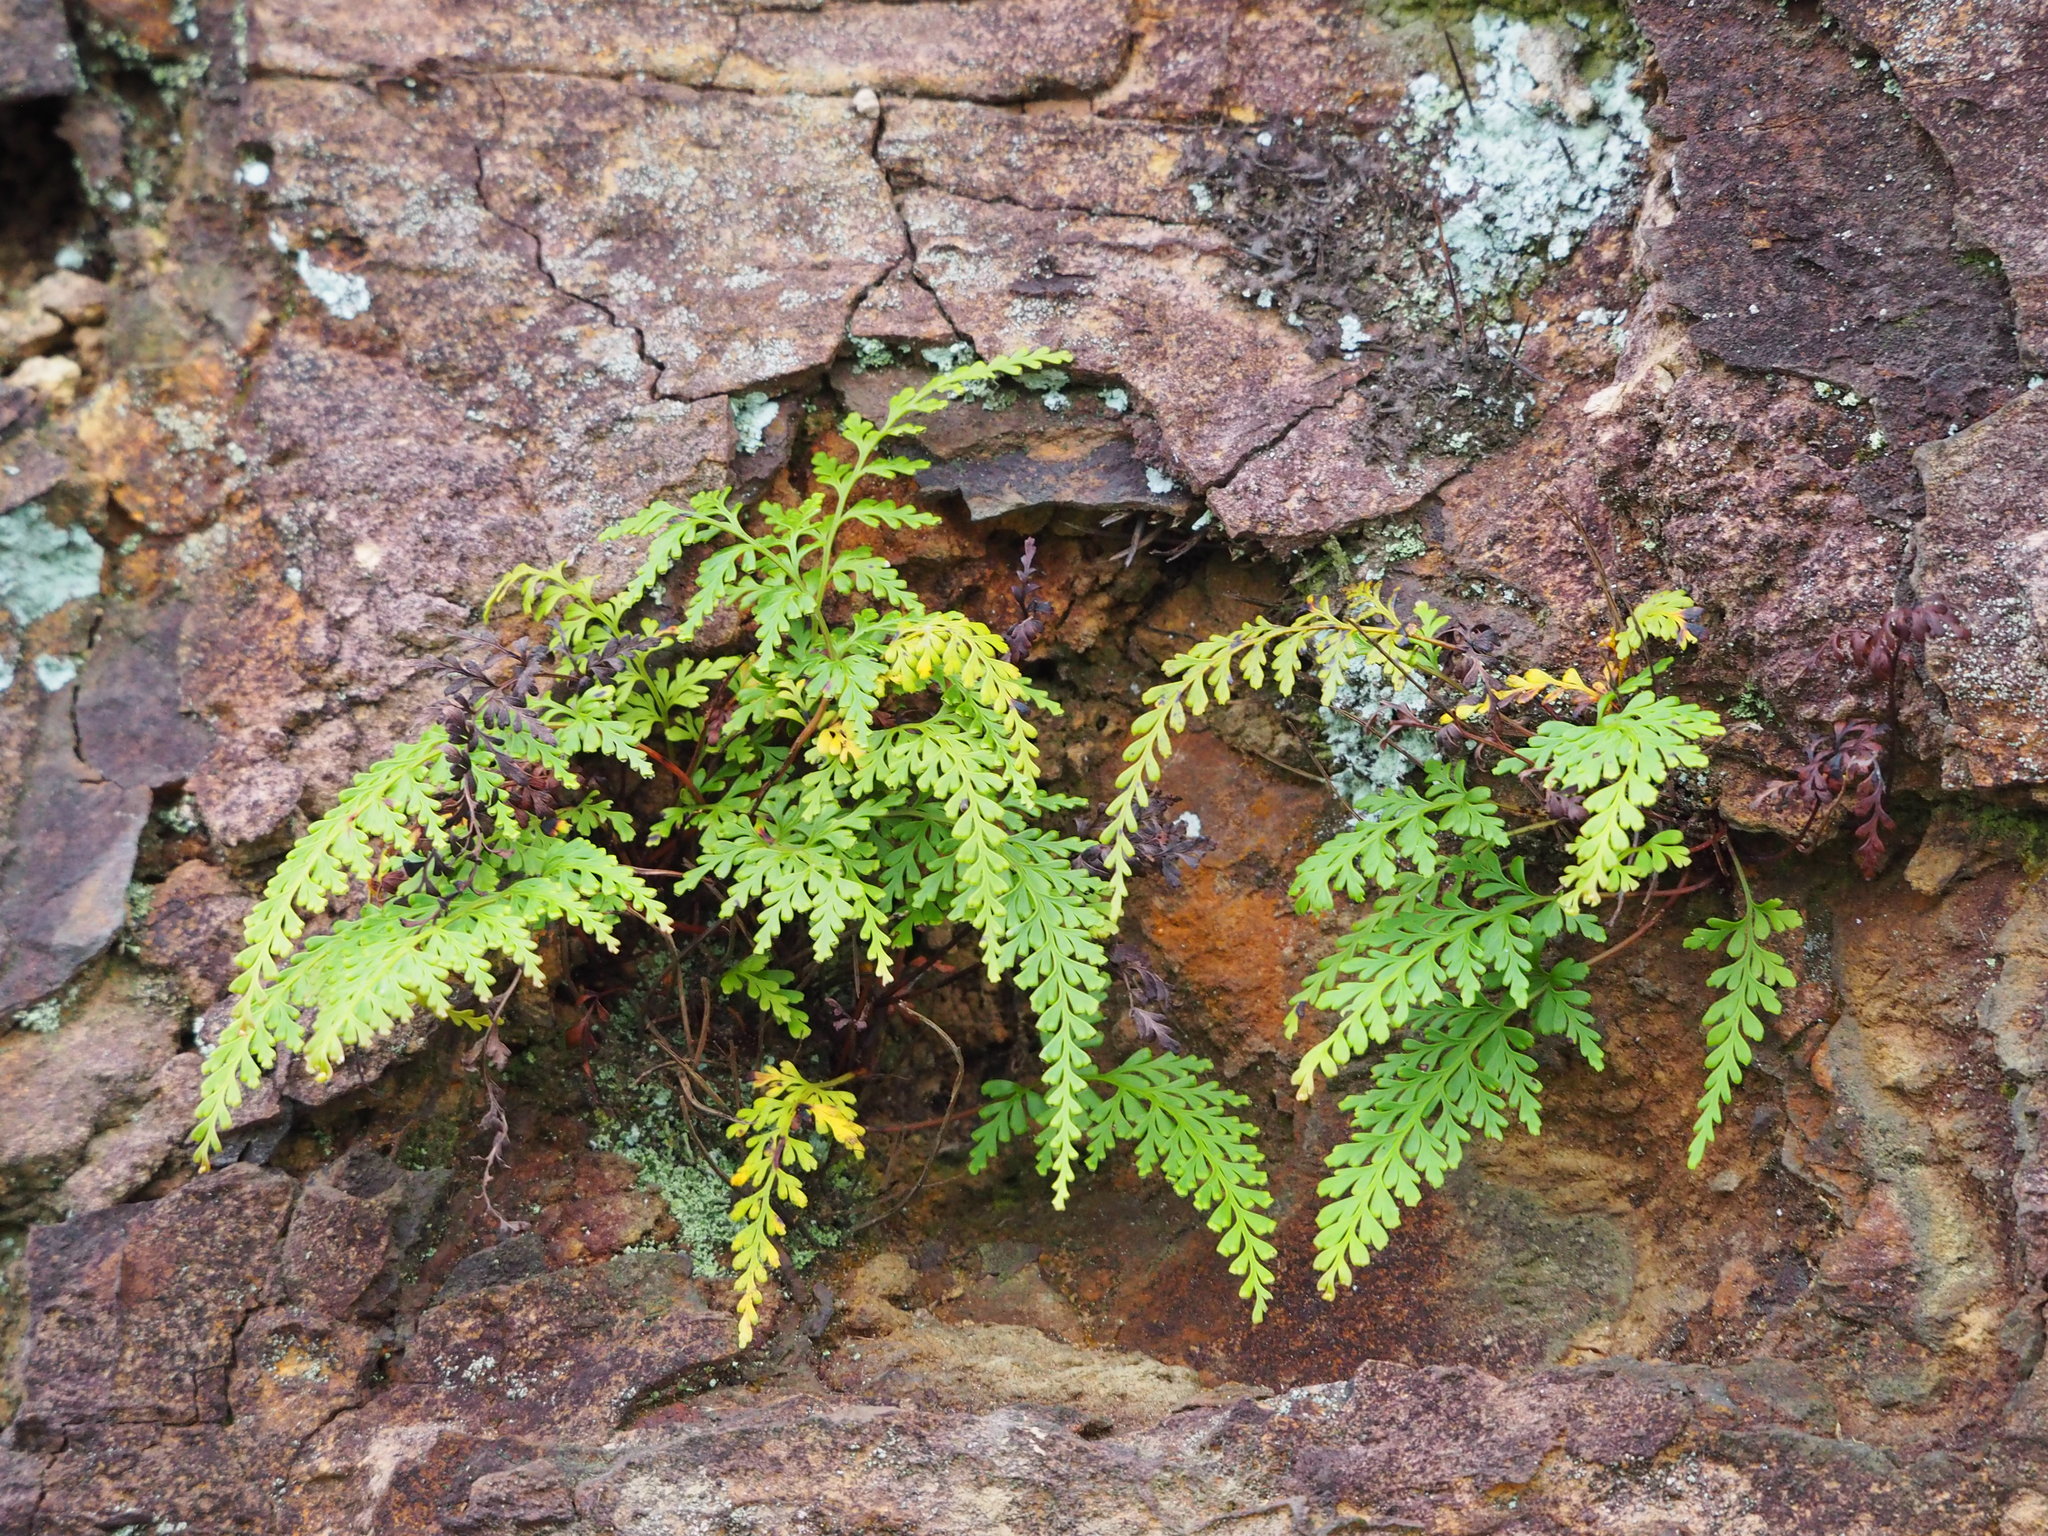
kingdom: Plantae
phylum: Tracheophyta
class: Polypodiopsida
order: Polypodiales
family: Lindsaeaceae
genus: Odontosoria
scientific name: Odontosoria biflora
